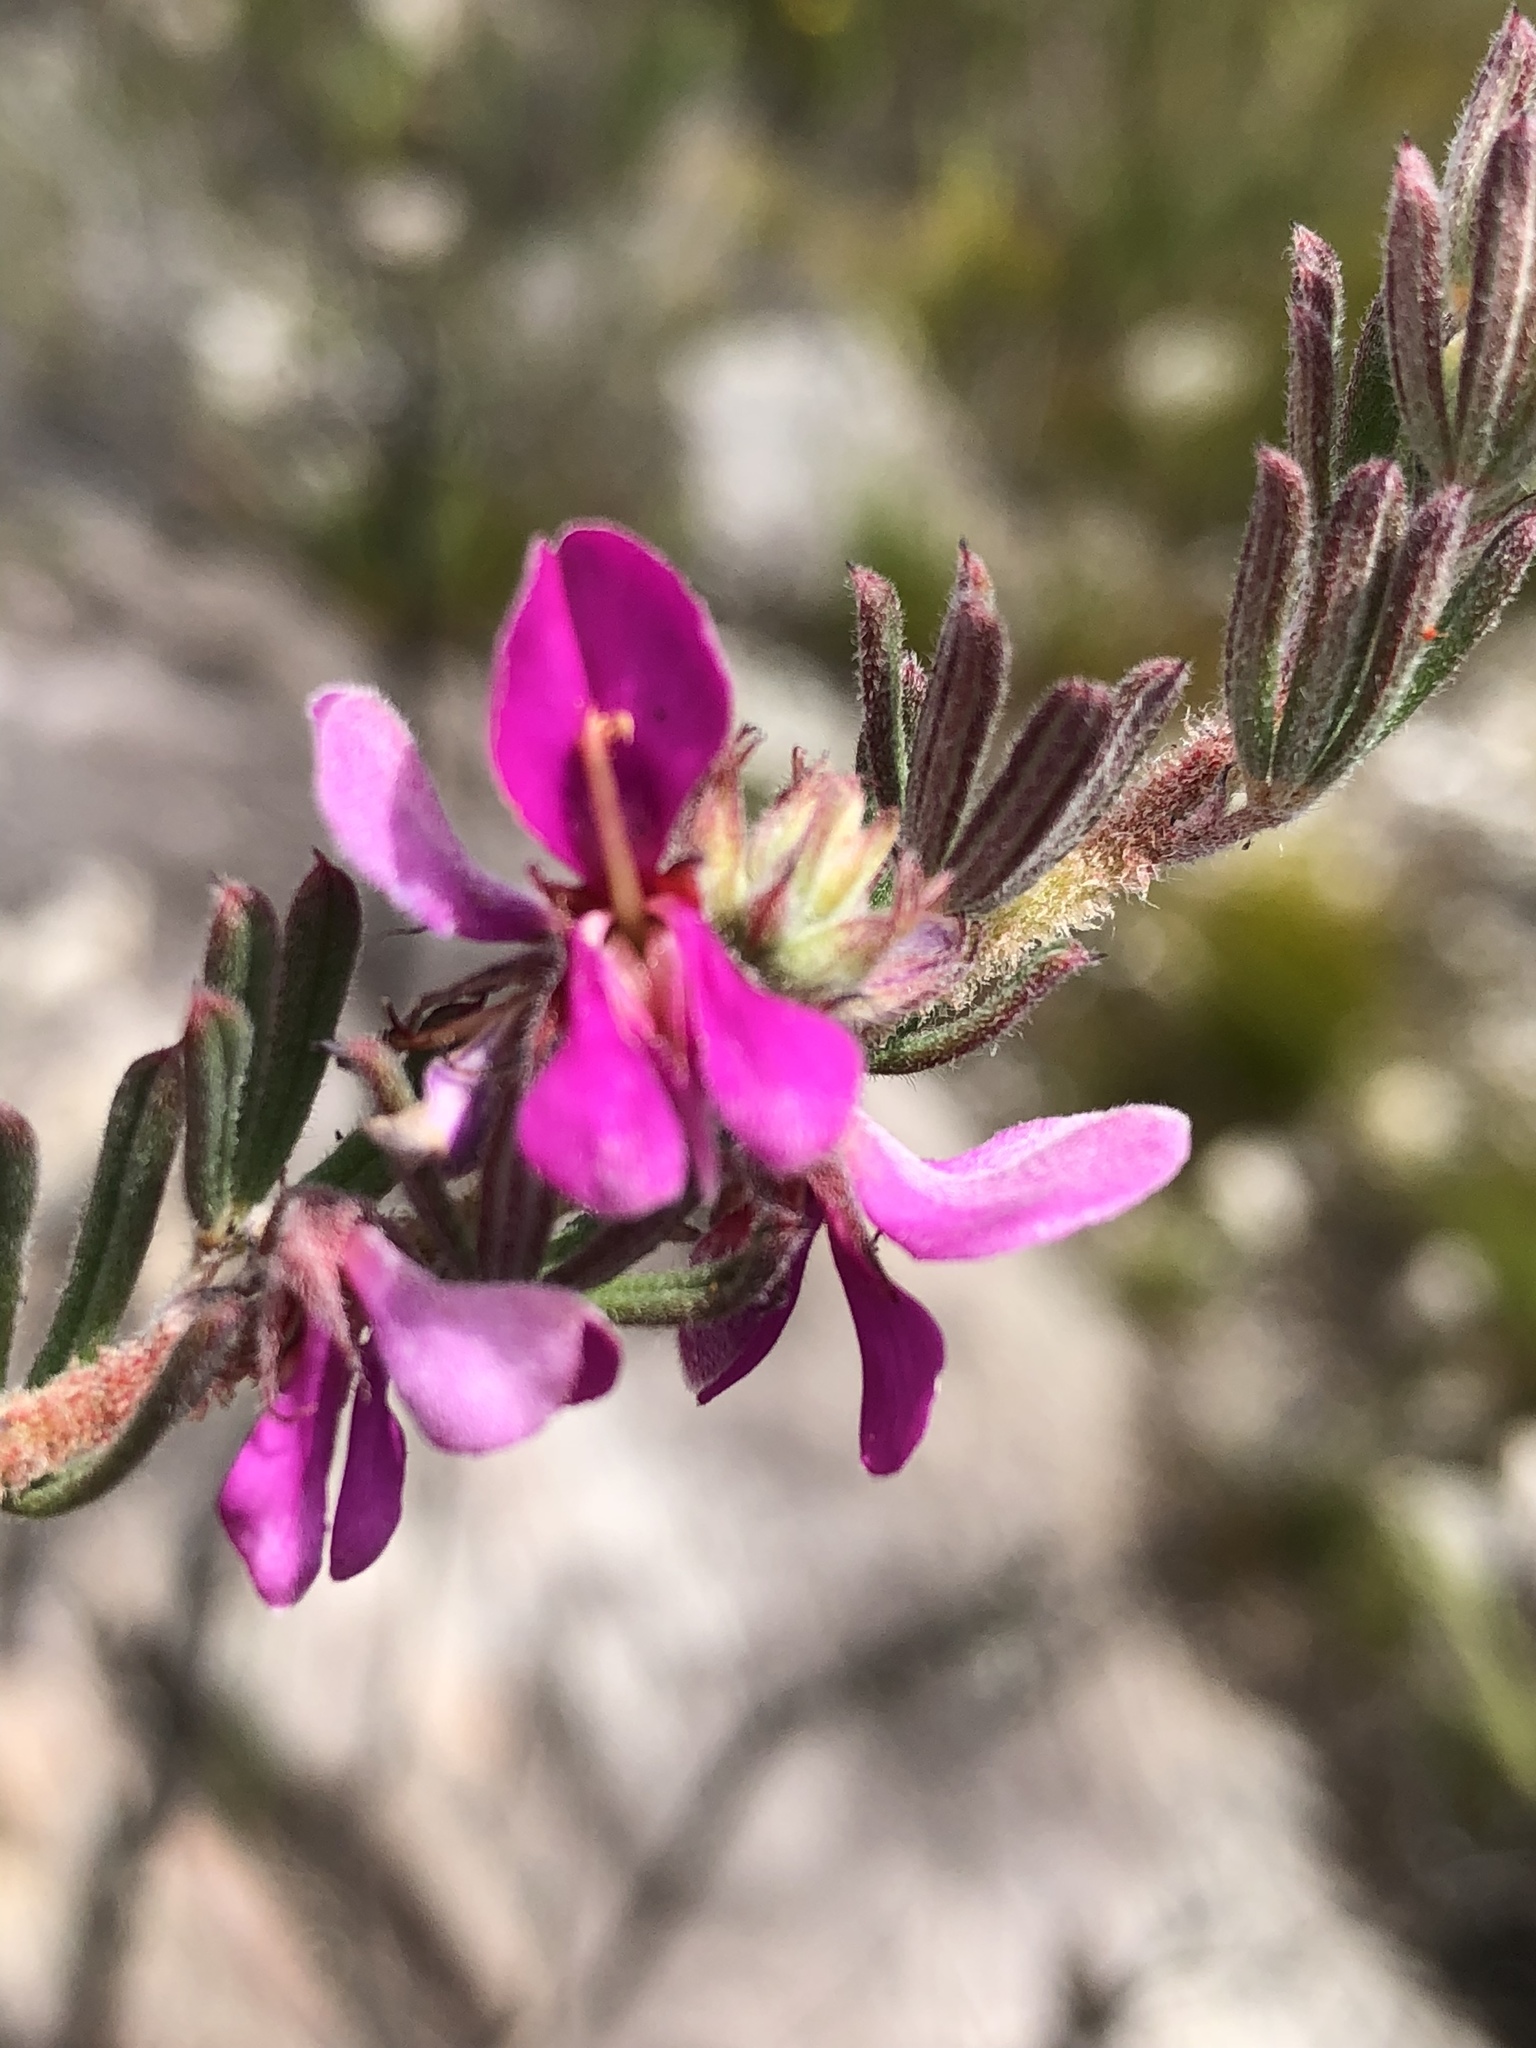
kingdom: Plantae
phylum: Tracheophyta
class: Magnoliopsida
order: Fabales
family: Fabaceae
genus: Indigofera
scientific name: Indigofera rhodantha
